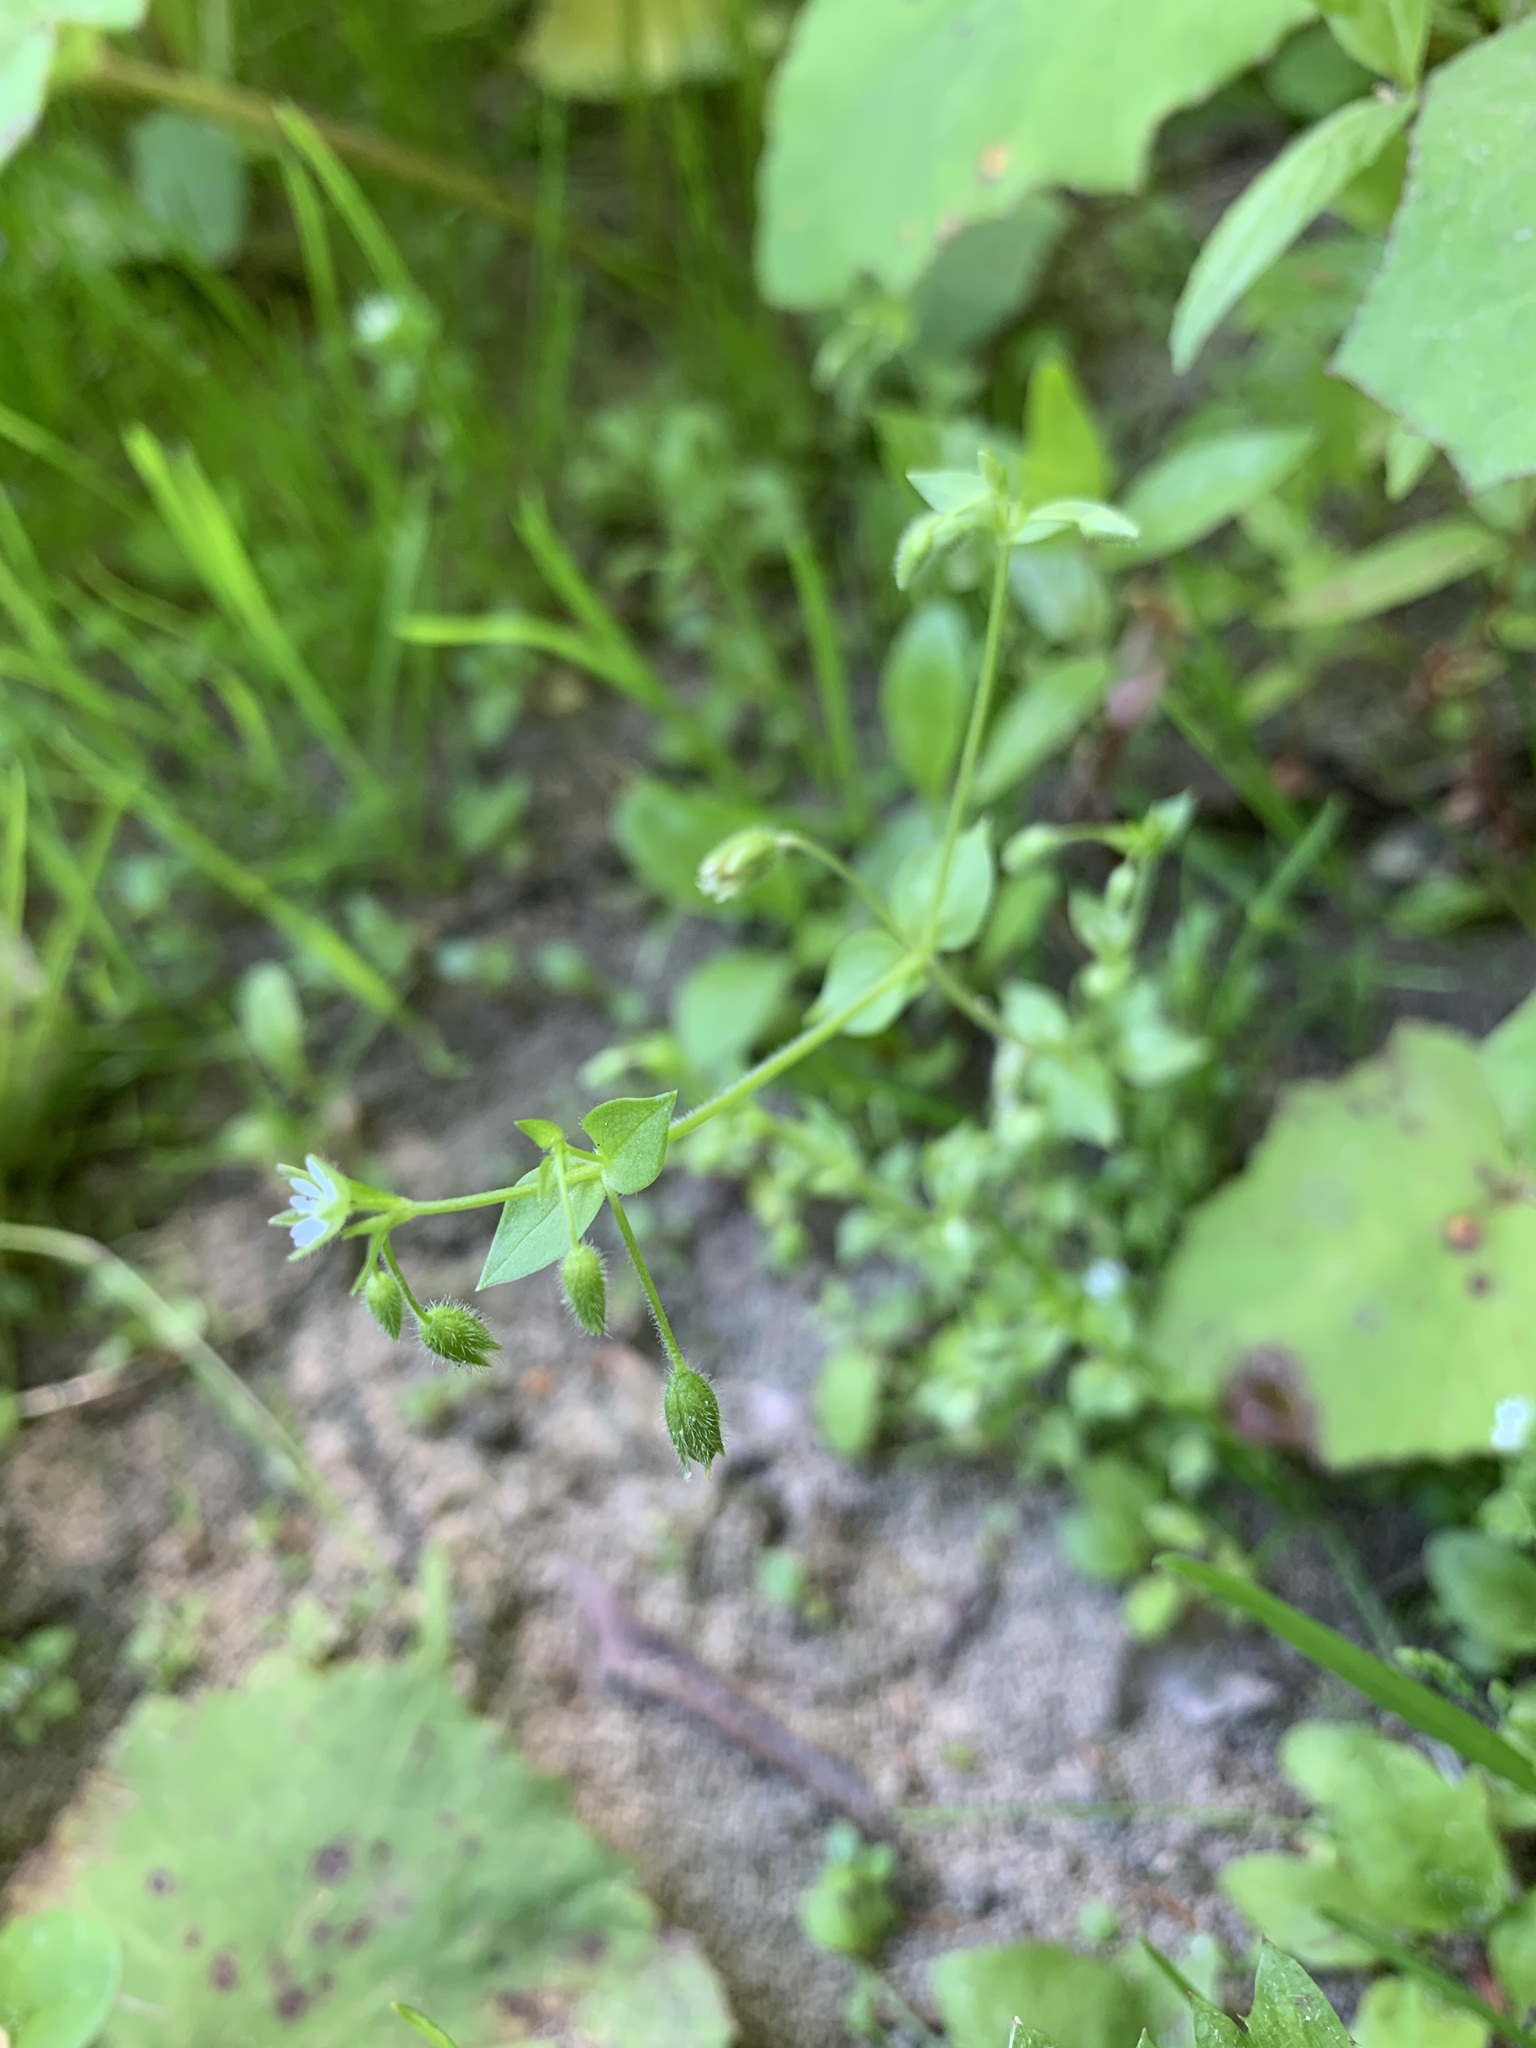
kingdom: Plantae
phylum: Tracheophyta
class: Magnoliopsida
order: Caryophyllales
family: Caryophyllaceae
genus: Stellaria
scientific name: Stellaria media
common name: Common chickweed
